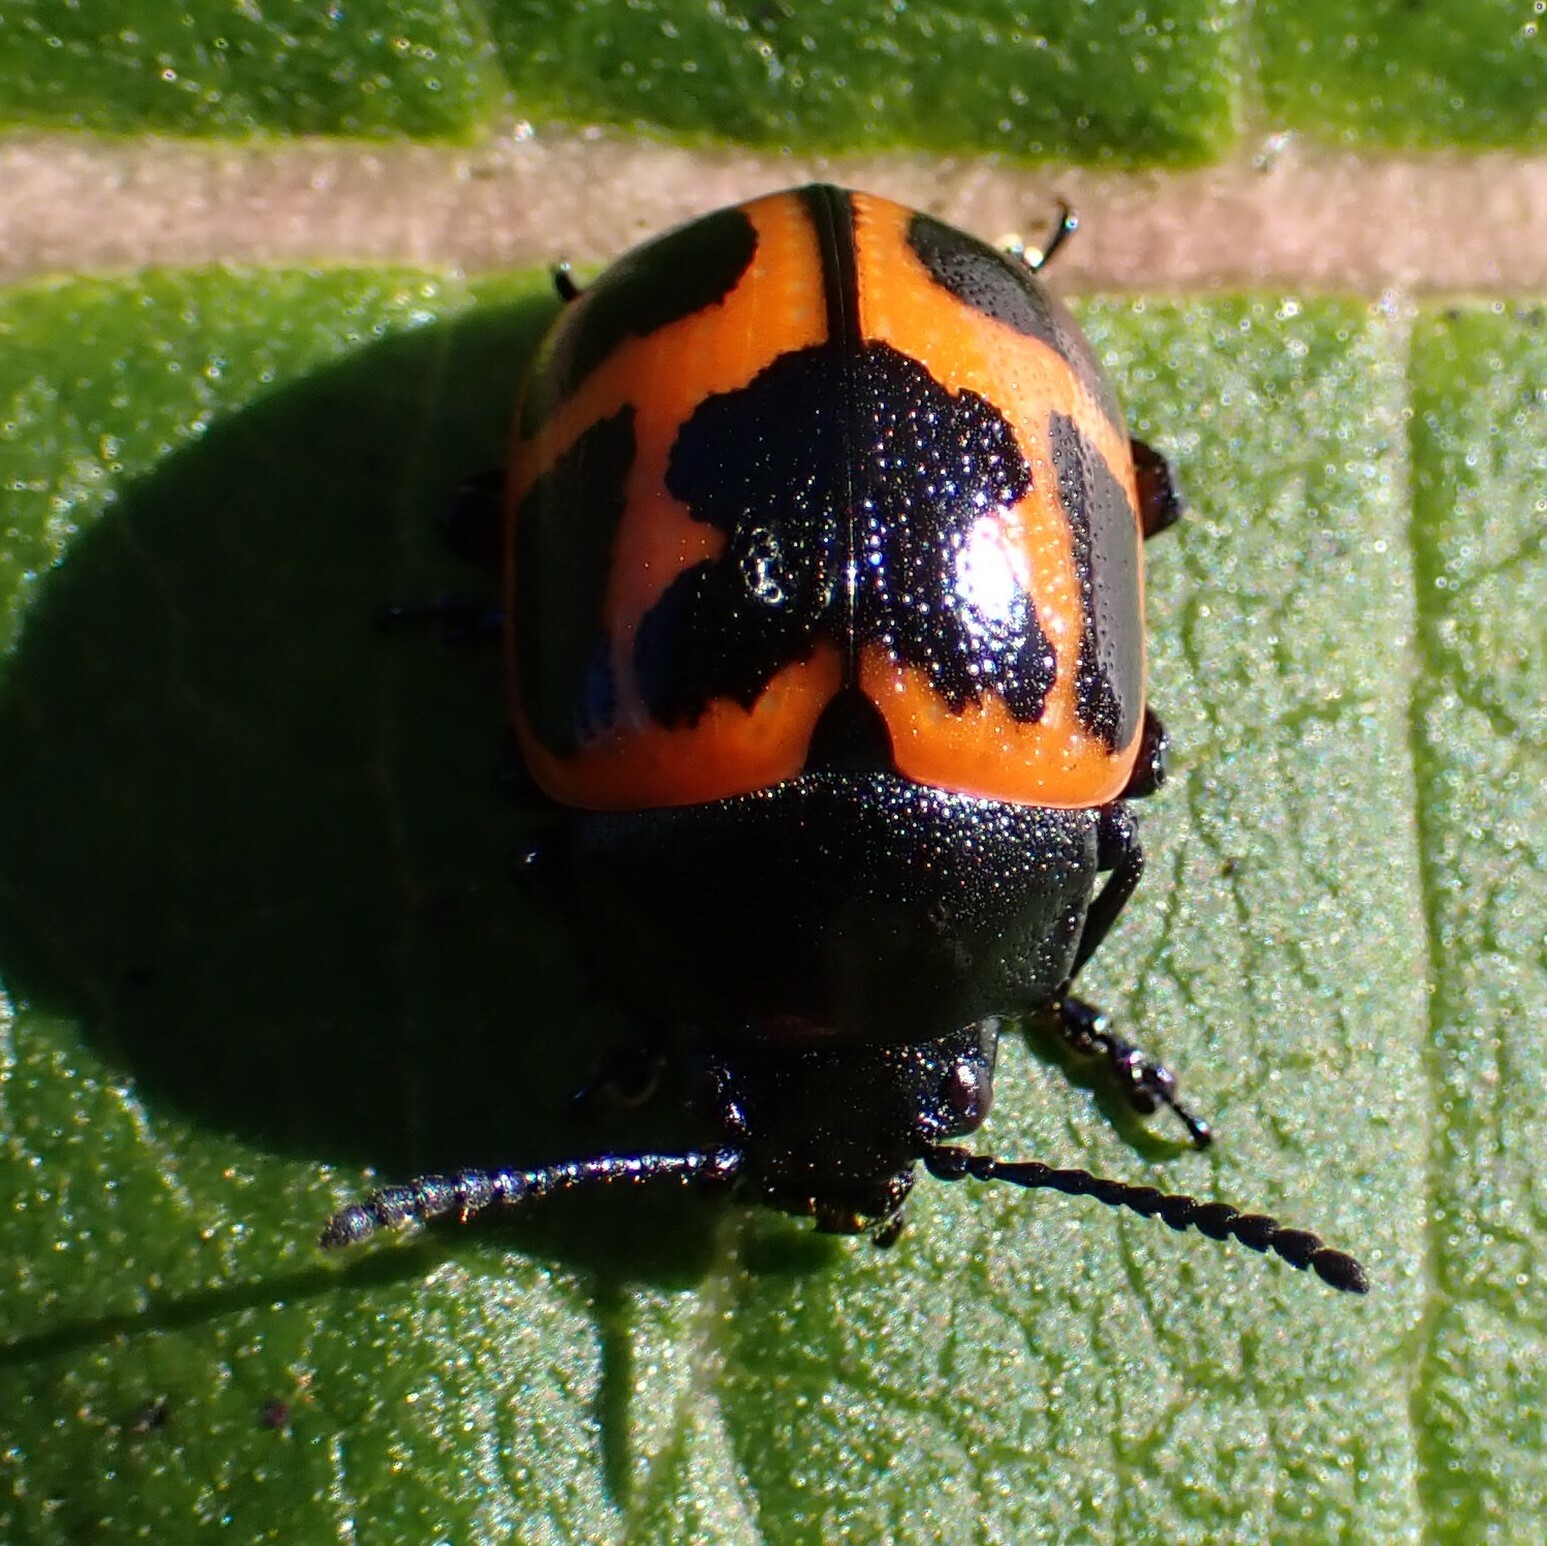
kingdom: Animalia
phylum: Arthropoda
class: Insecta
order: Coleoptera
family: Chrysomelidae
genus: Labidomera
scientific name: Labidomera clivicollis
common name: Swamp milkweed leaf beetle
